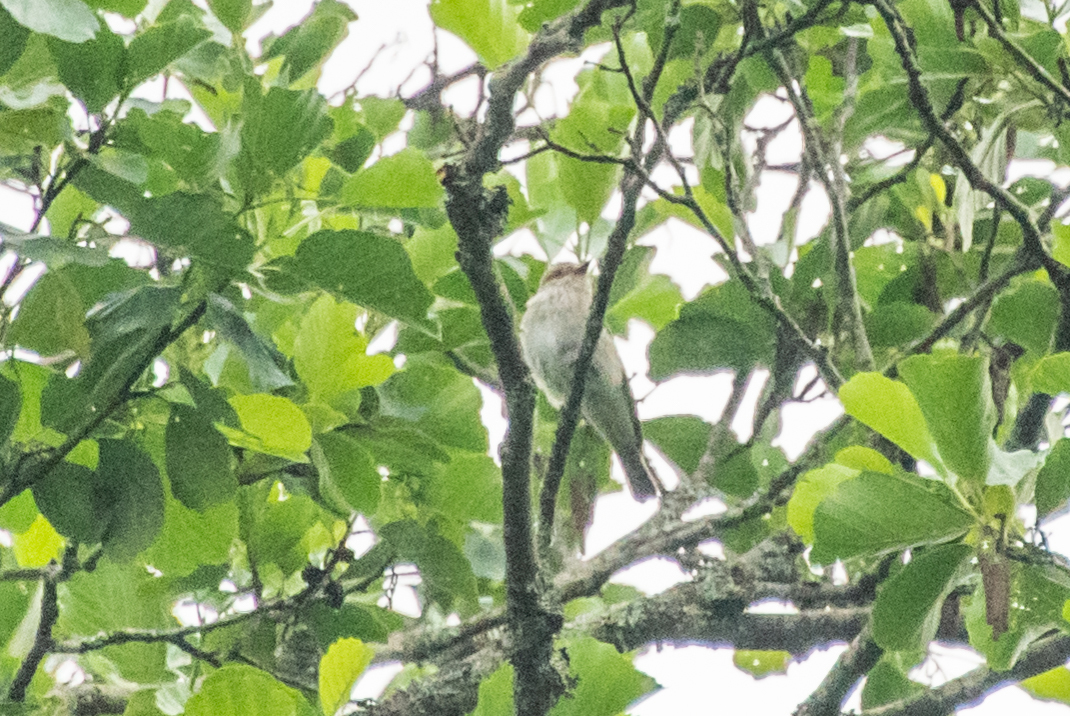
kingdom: Animalia
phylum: Chordata
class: Aves
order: Passeriformes
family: Muscicapidae
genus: Muscicapa
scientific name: Muscicapa striata
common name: Spotted flycatcher
